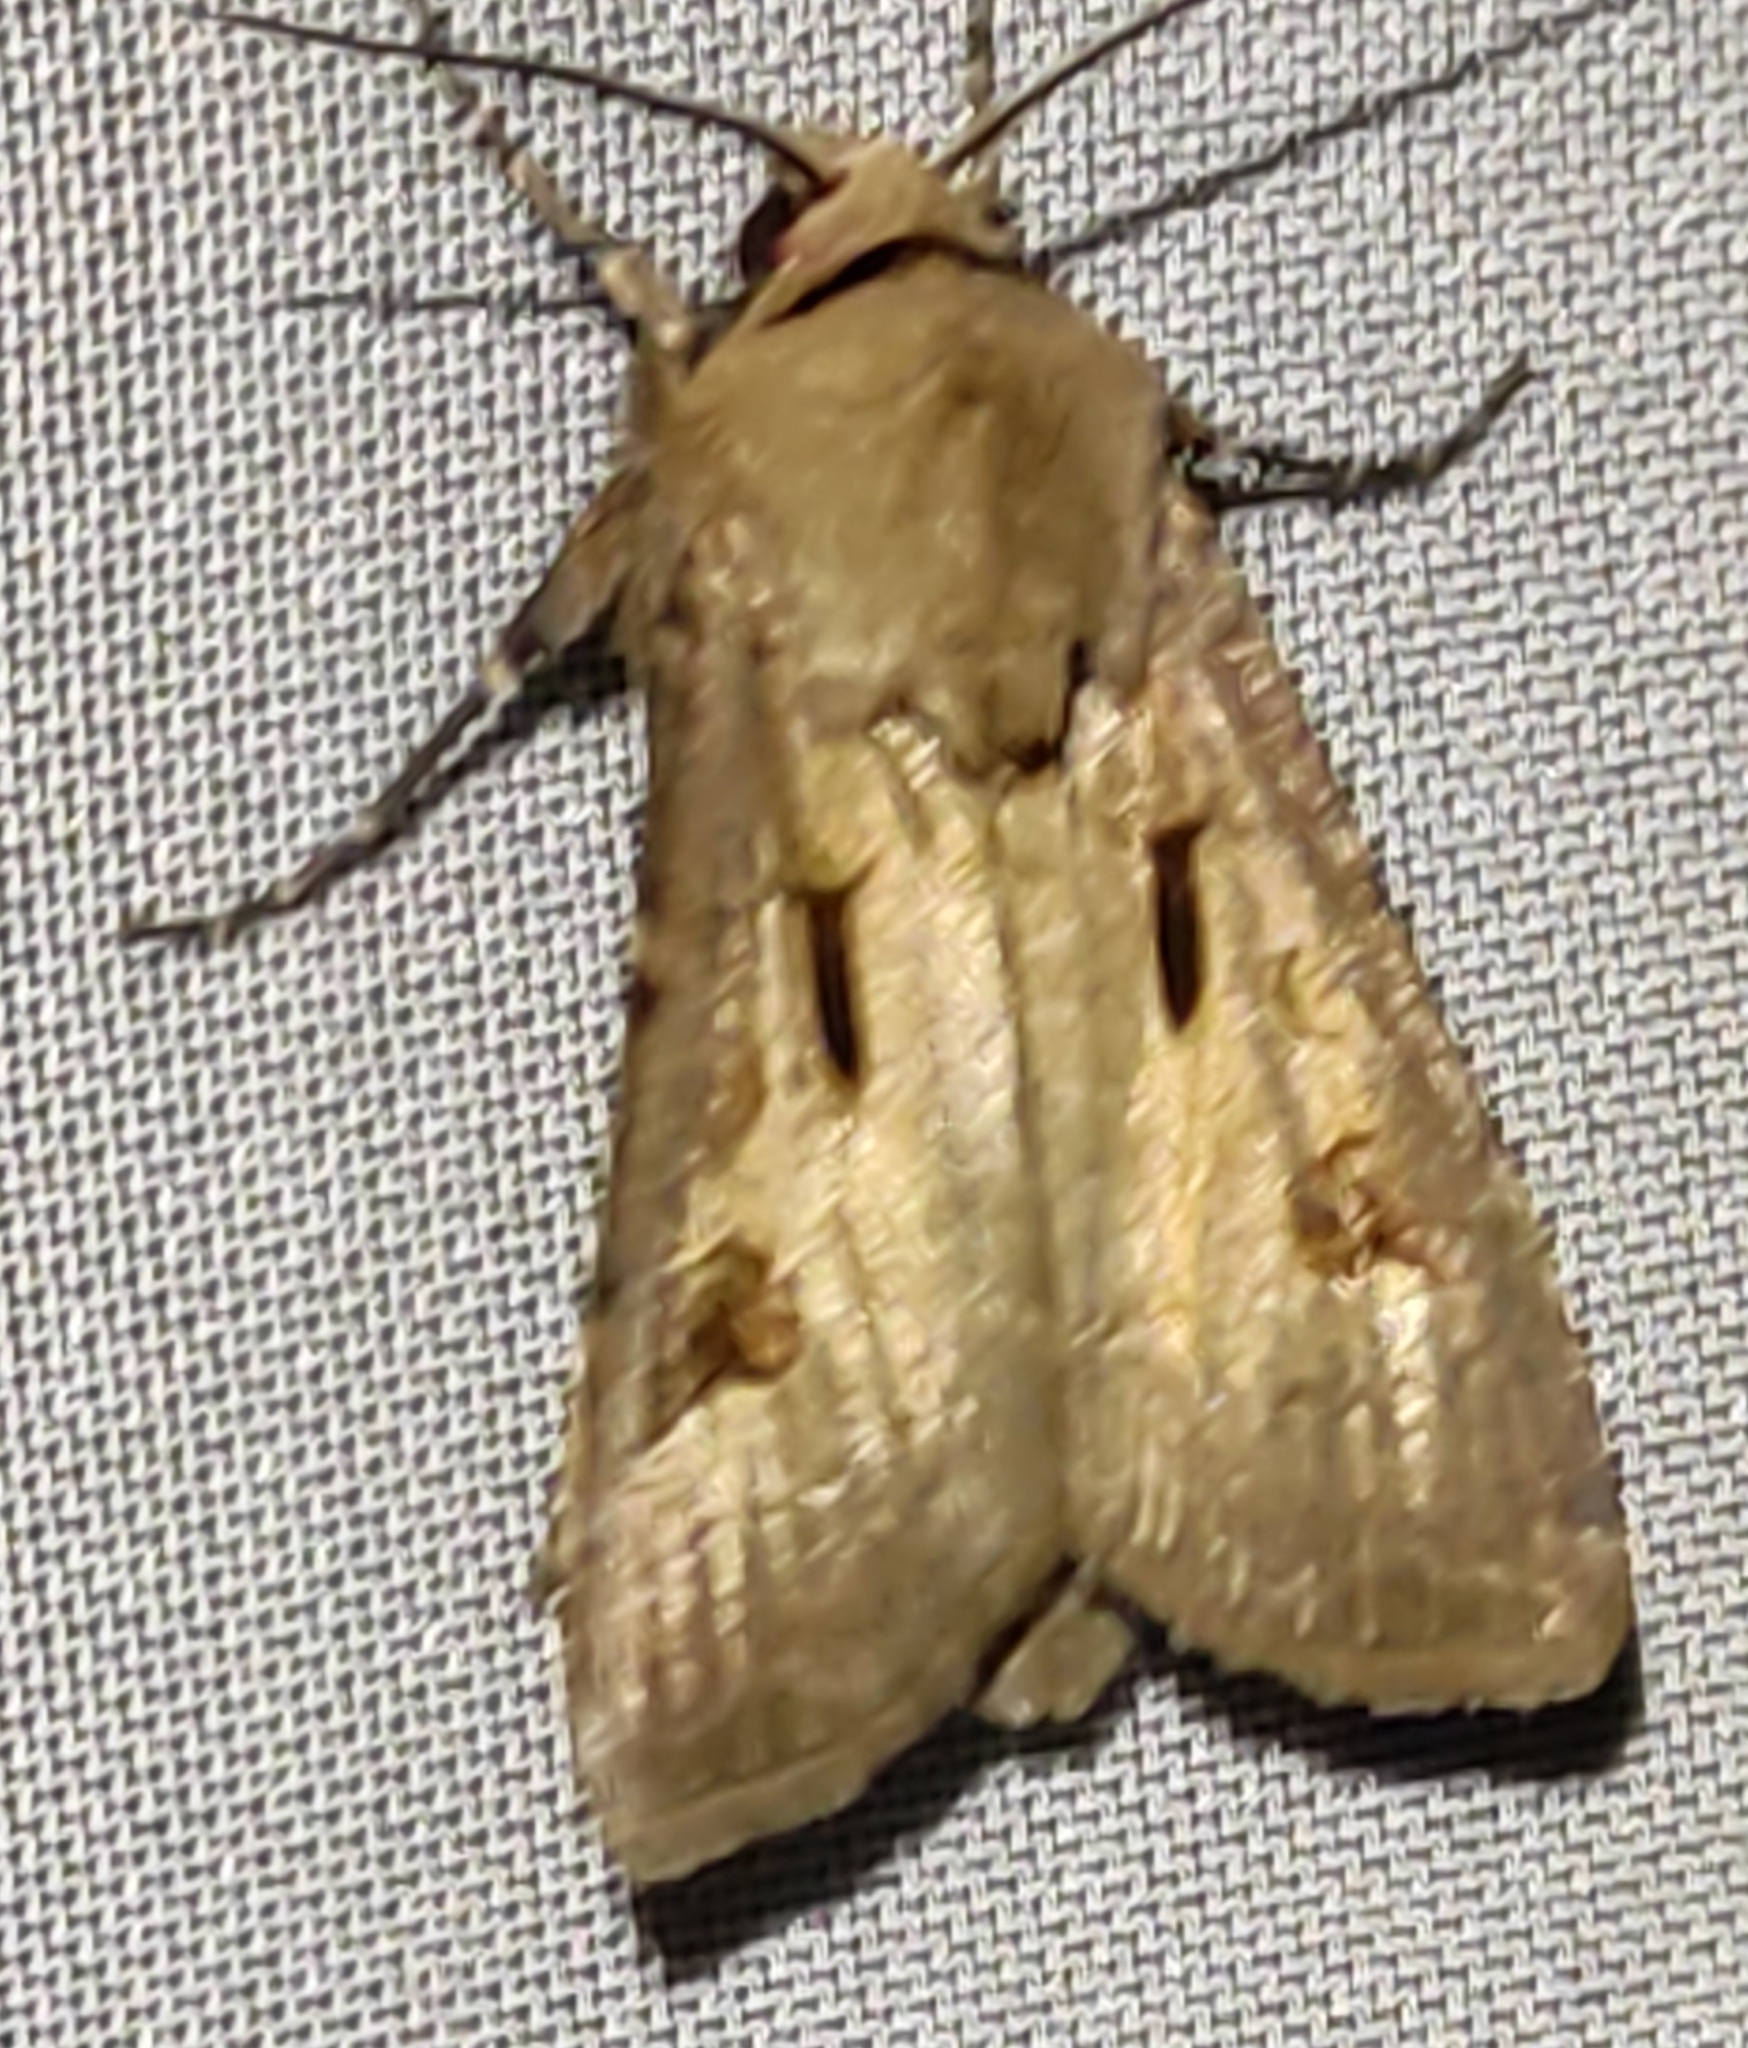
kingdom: Animalia
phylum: Arthropoda
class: Insecta
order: Lepidoptera
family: Noctuidae
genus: Agrotis
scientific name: Agrotis exclamationis
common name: Heart and dart
